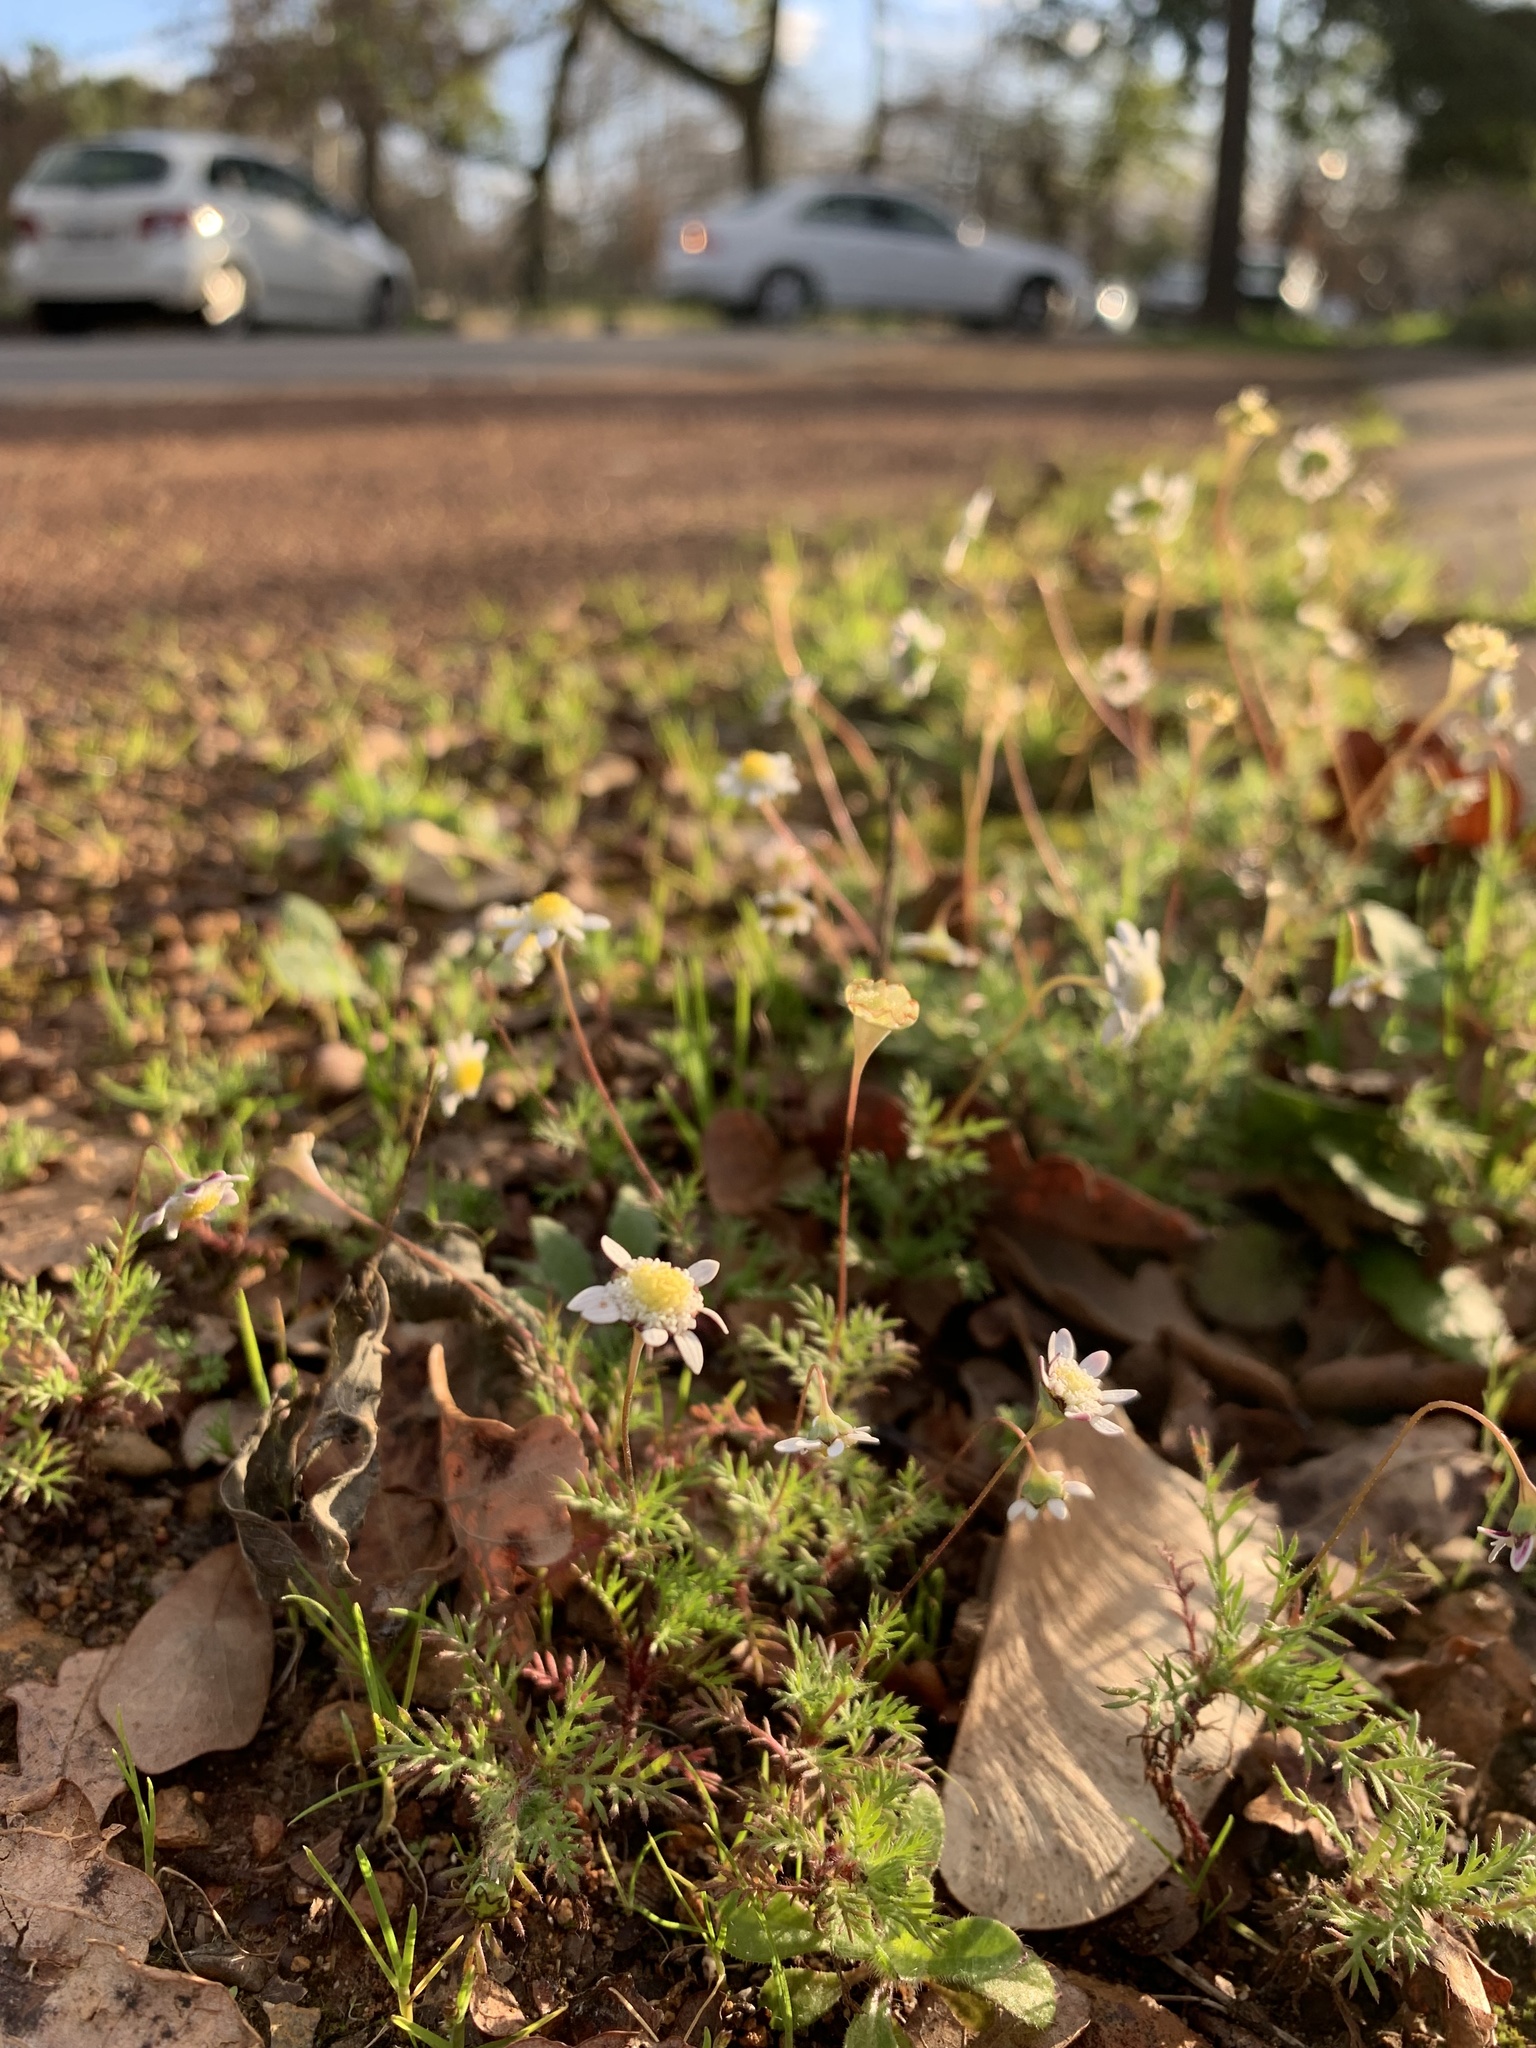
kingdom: Plantae
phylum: Tracheophyta
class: Magnoliopsida
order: Asterales
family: Asteraceae
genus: Cotula
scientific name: Cotula turbinata
